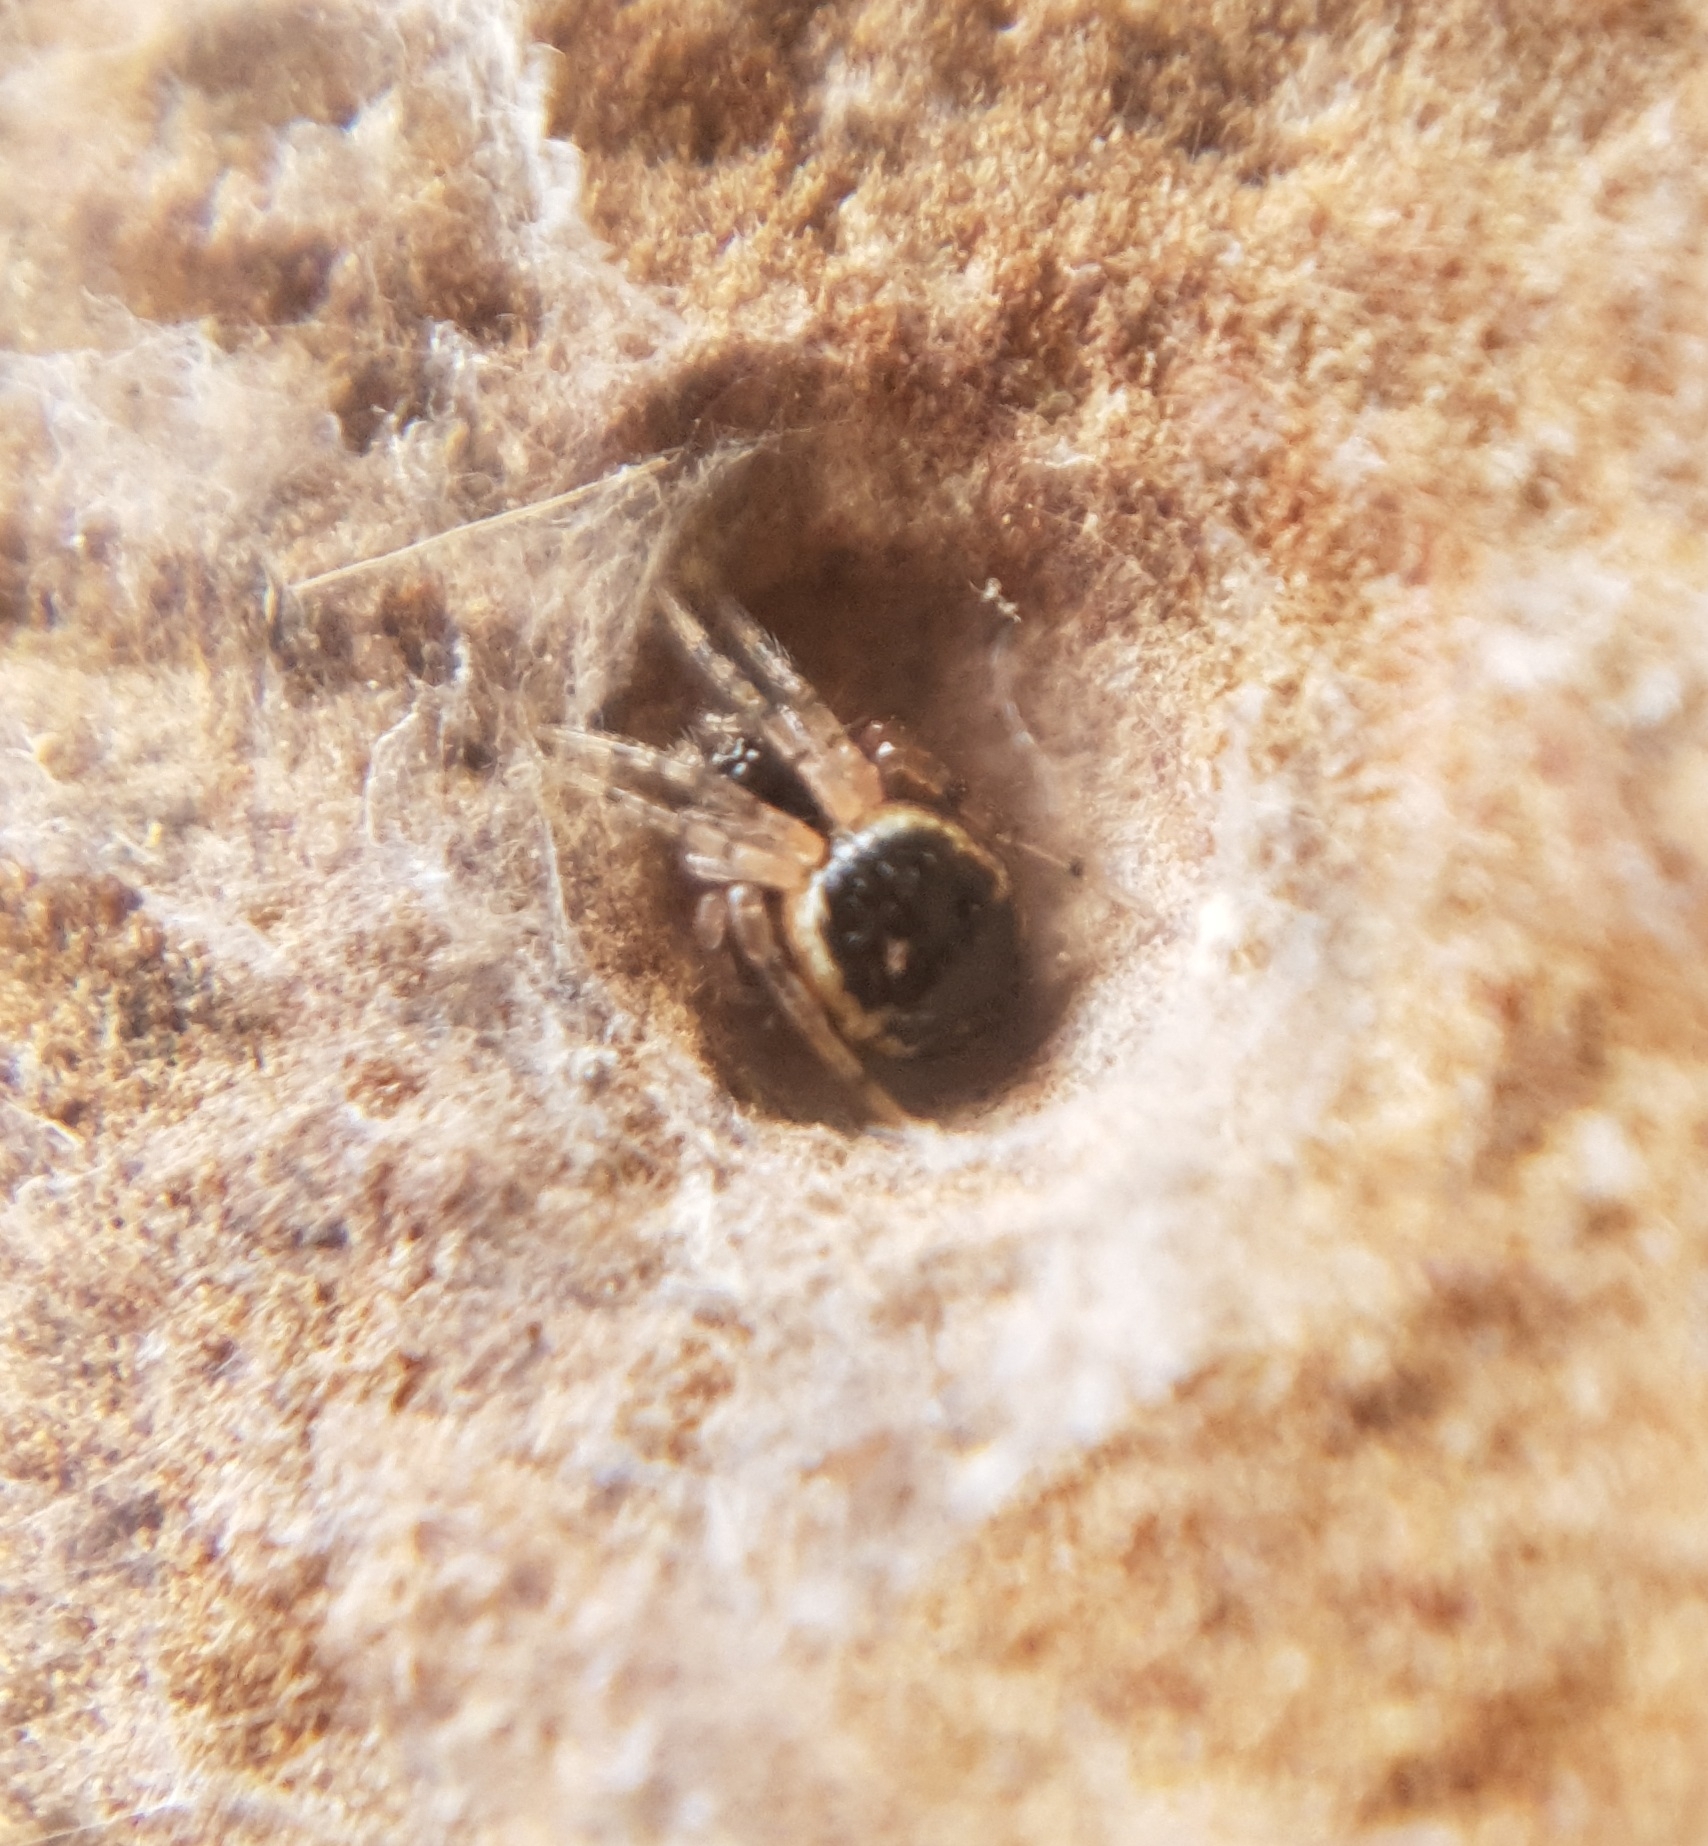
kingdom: Animalia
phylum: Arthropoda
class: Arachnida
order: Araneae
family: Theridiidae
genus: Sardinidion
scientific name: Sardinidion blackwalli
